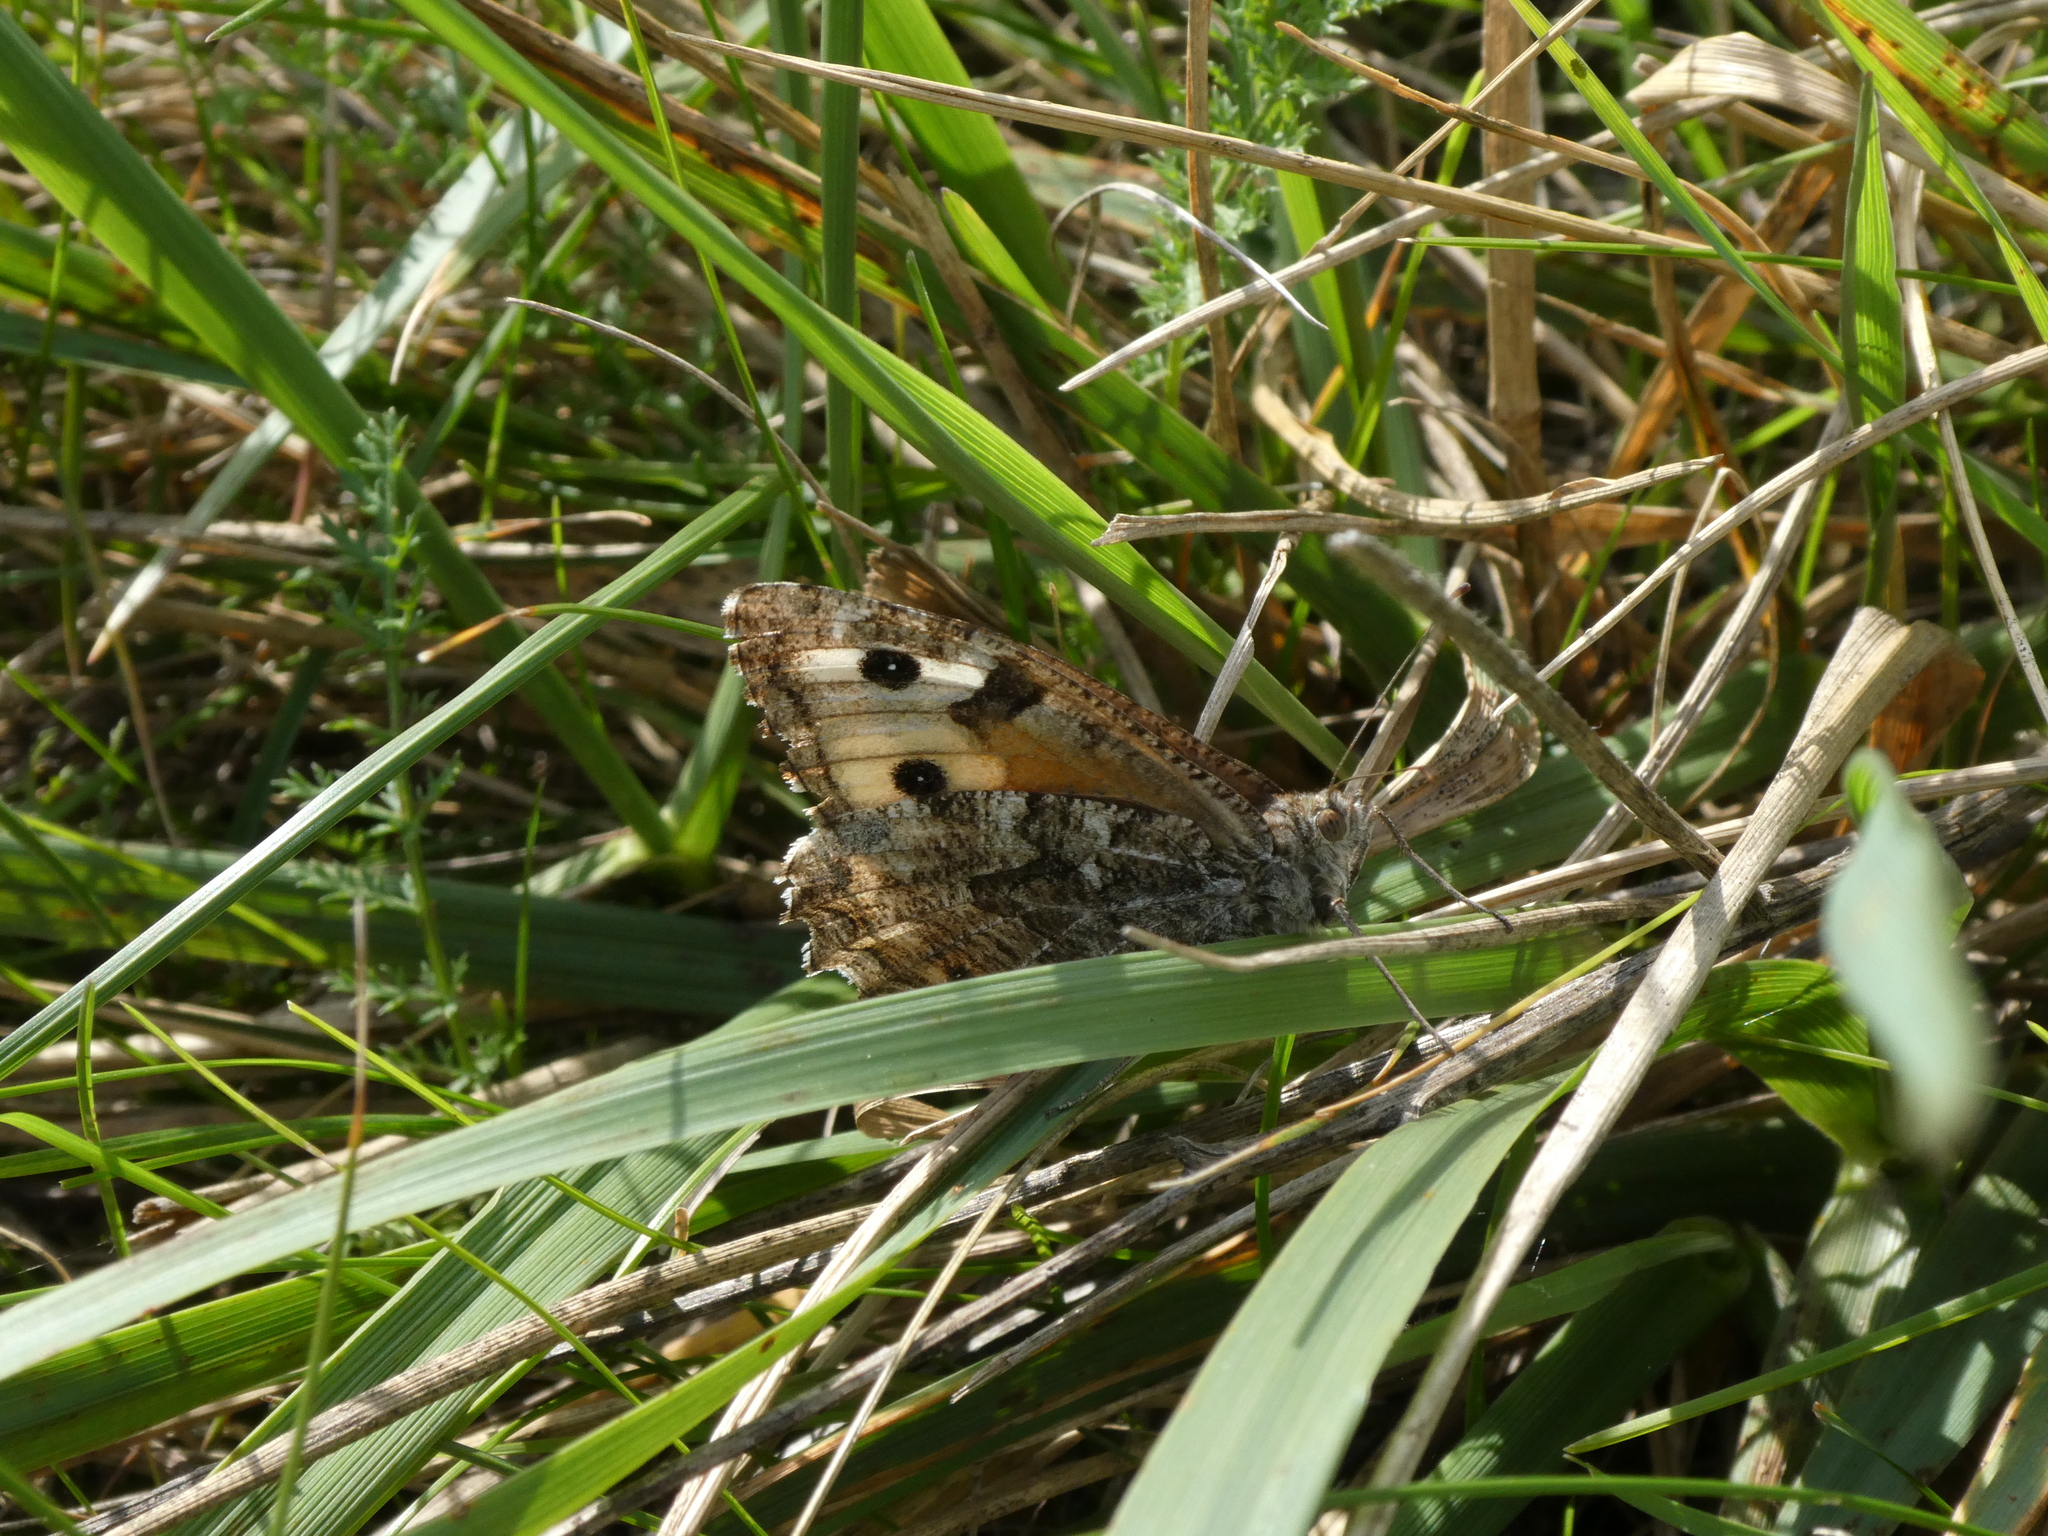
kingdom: Animalia
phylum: Arthropoda
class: Insecta
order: Lepidoptera
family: Nymphalidae
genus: Hipparchia
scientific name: Hipparchia semele
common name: Grayling
